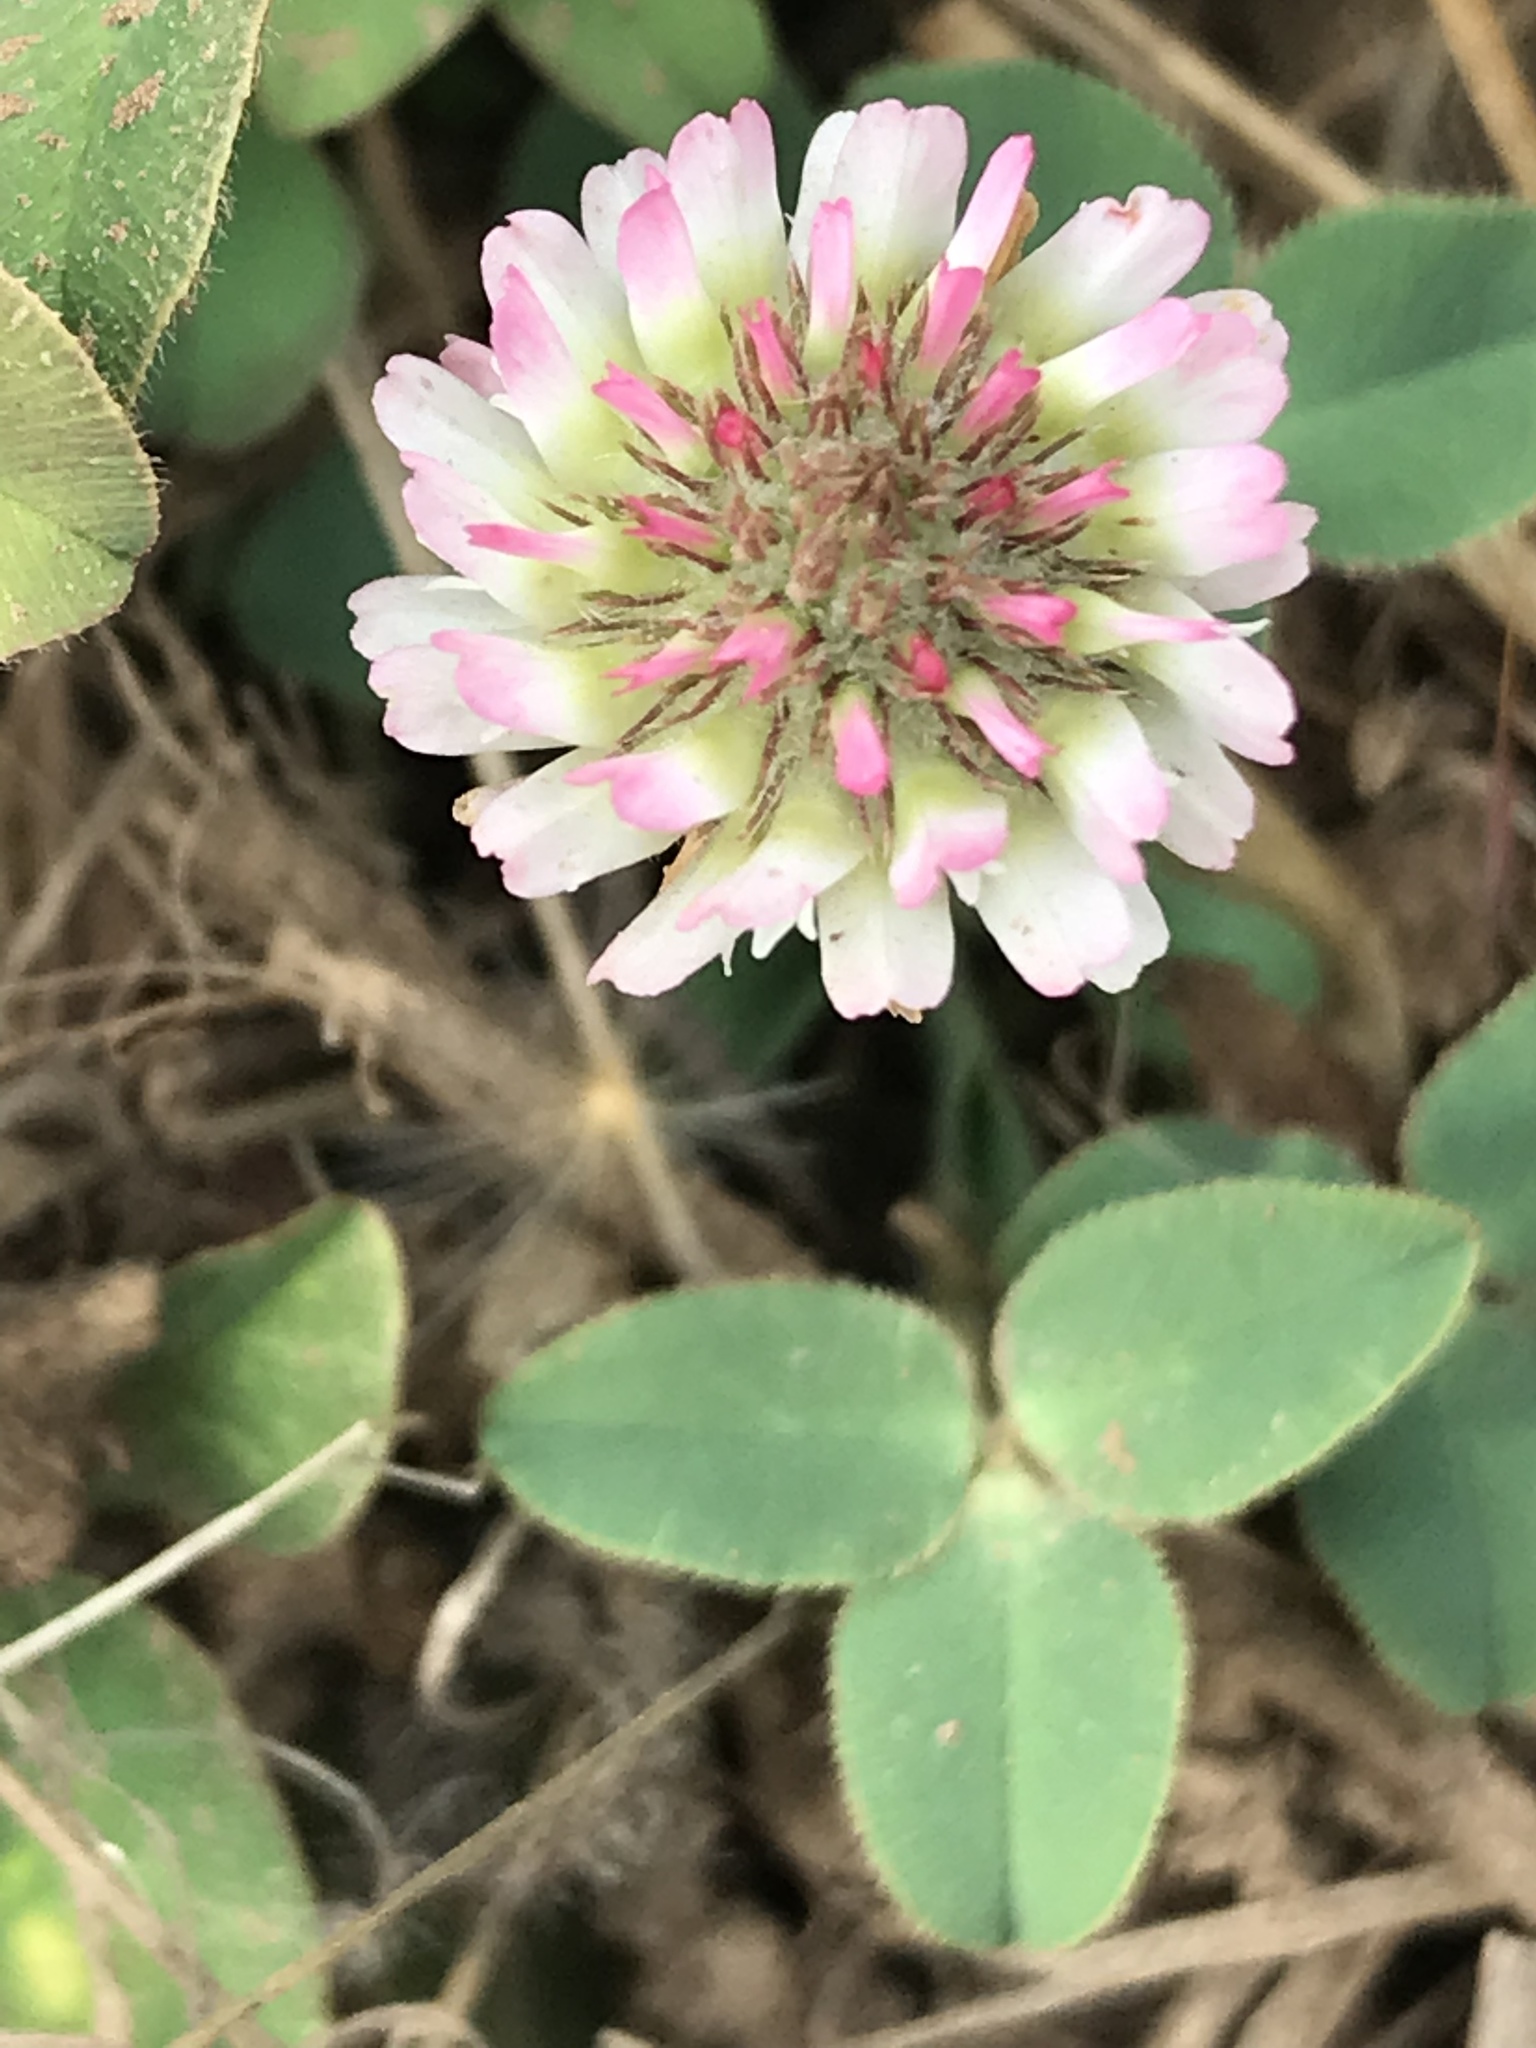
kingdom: Plantae
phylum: Tracheophyta
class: Magnoliopsida
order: Fabales
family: Fabaceae
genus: Trifolium
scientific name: Trifolium fragiferum
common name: Strawberry clover
